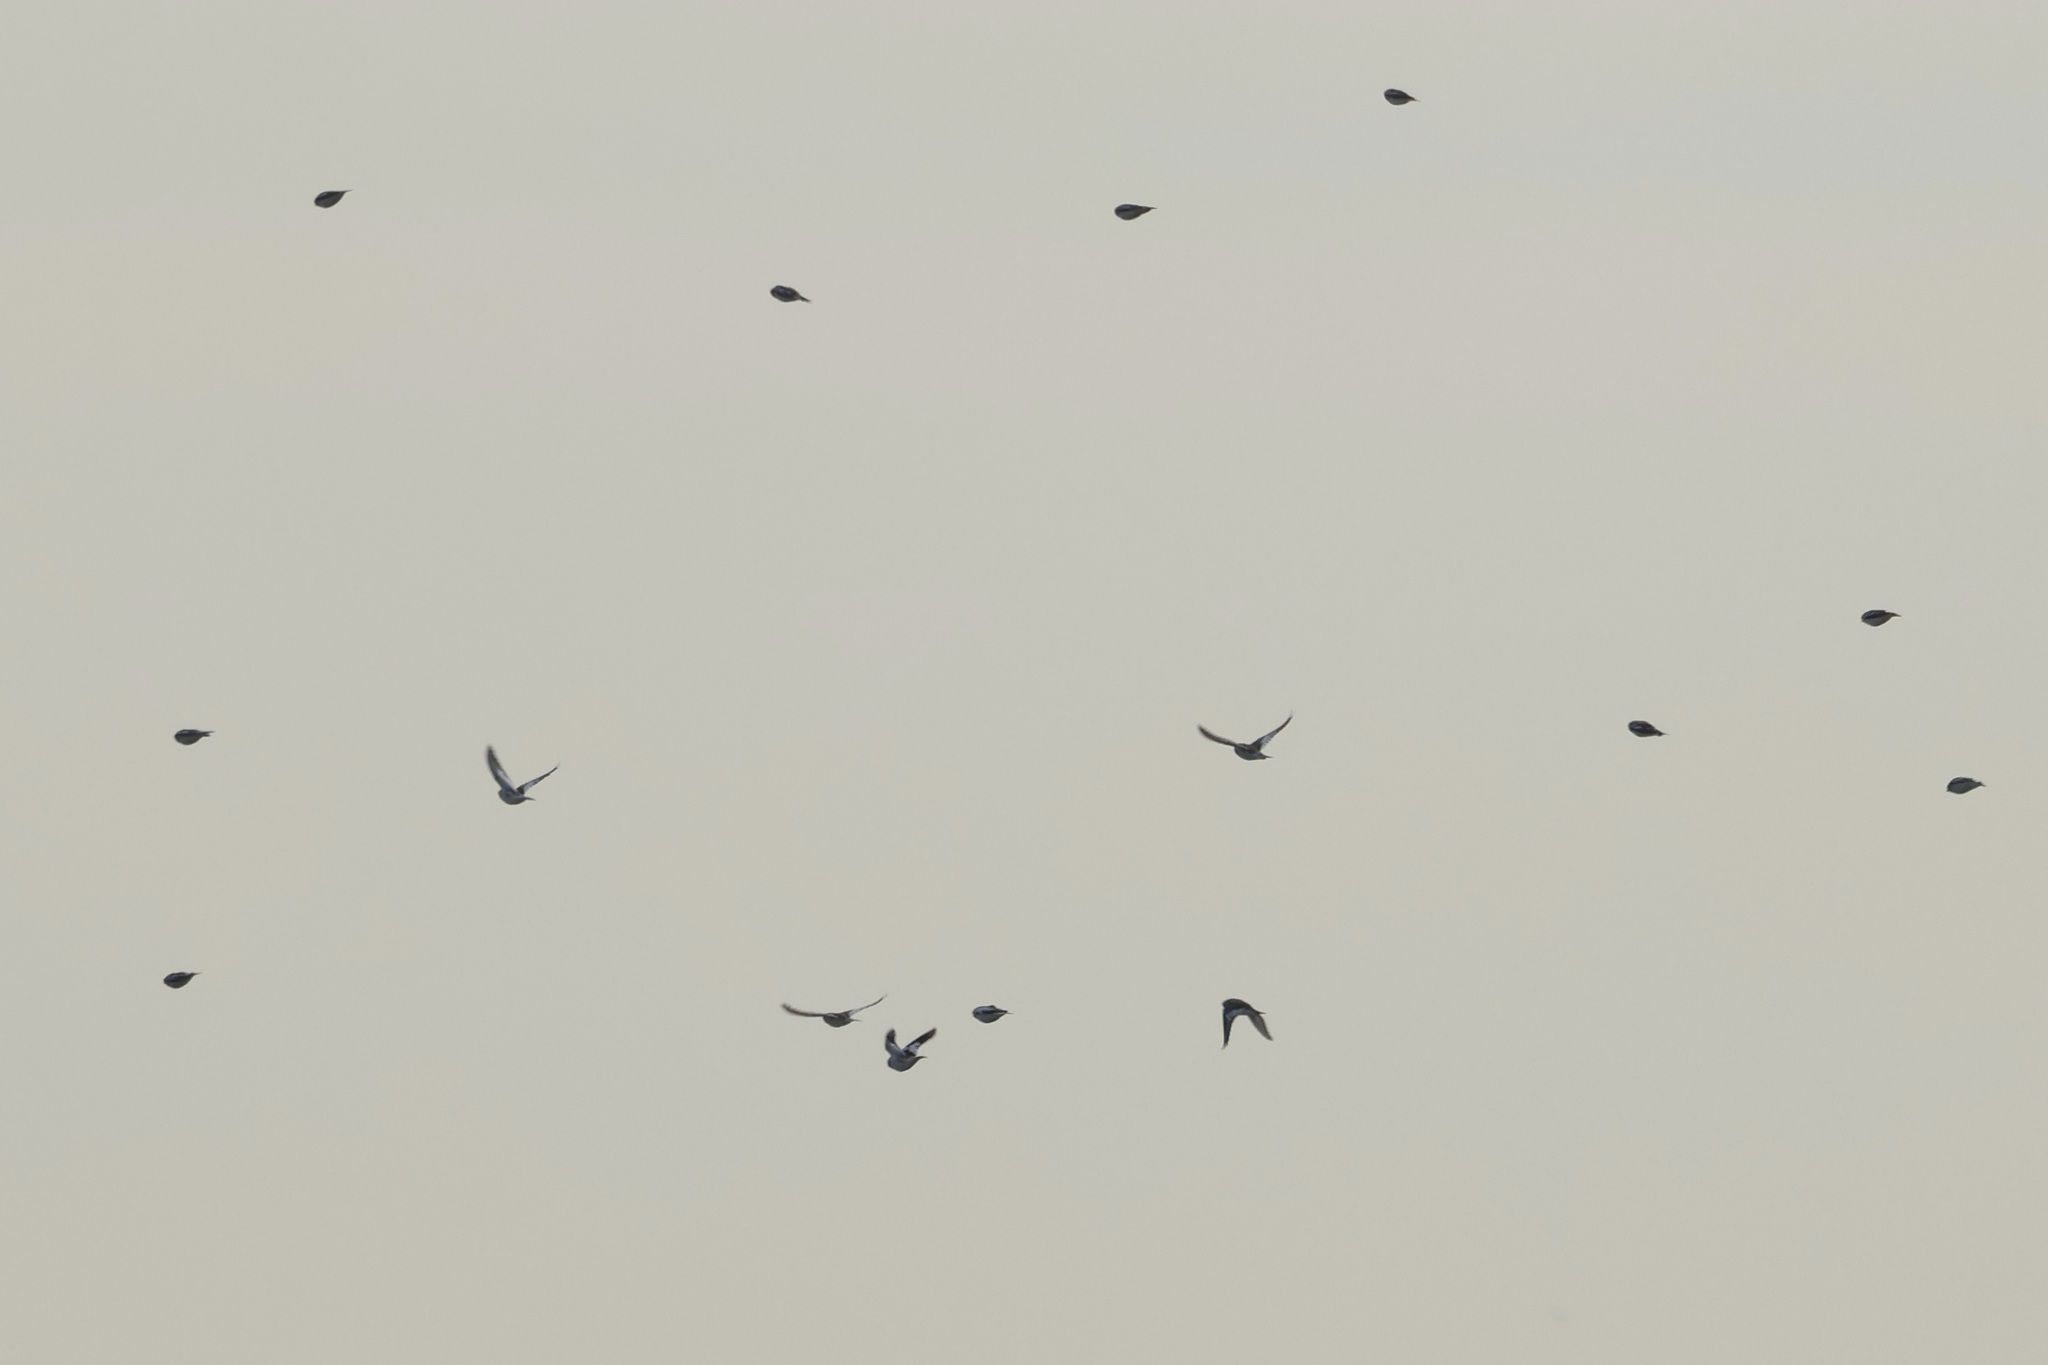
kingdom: Animalia
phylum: Chordata
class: Aves
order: Passeriformes
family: Calcariidae
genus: Plectrophenax
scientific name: Plectrophenax nivalis
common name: Snow bunting
